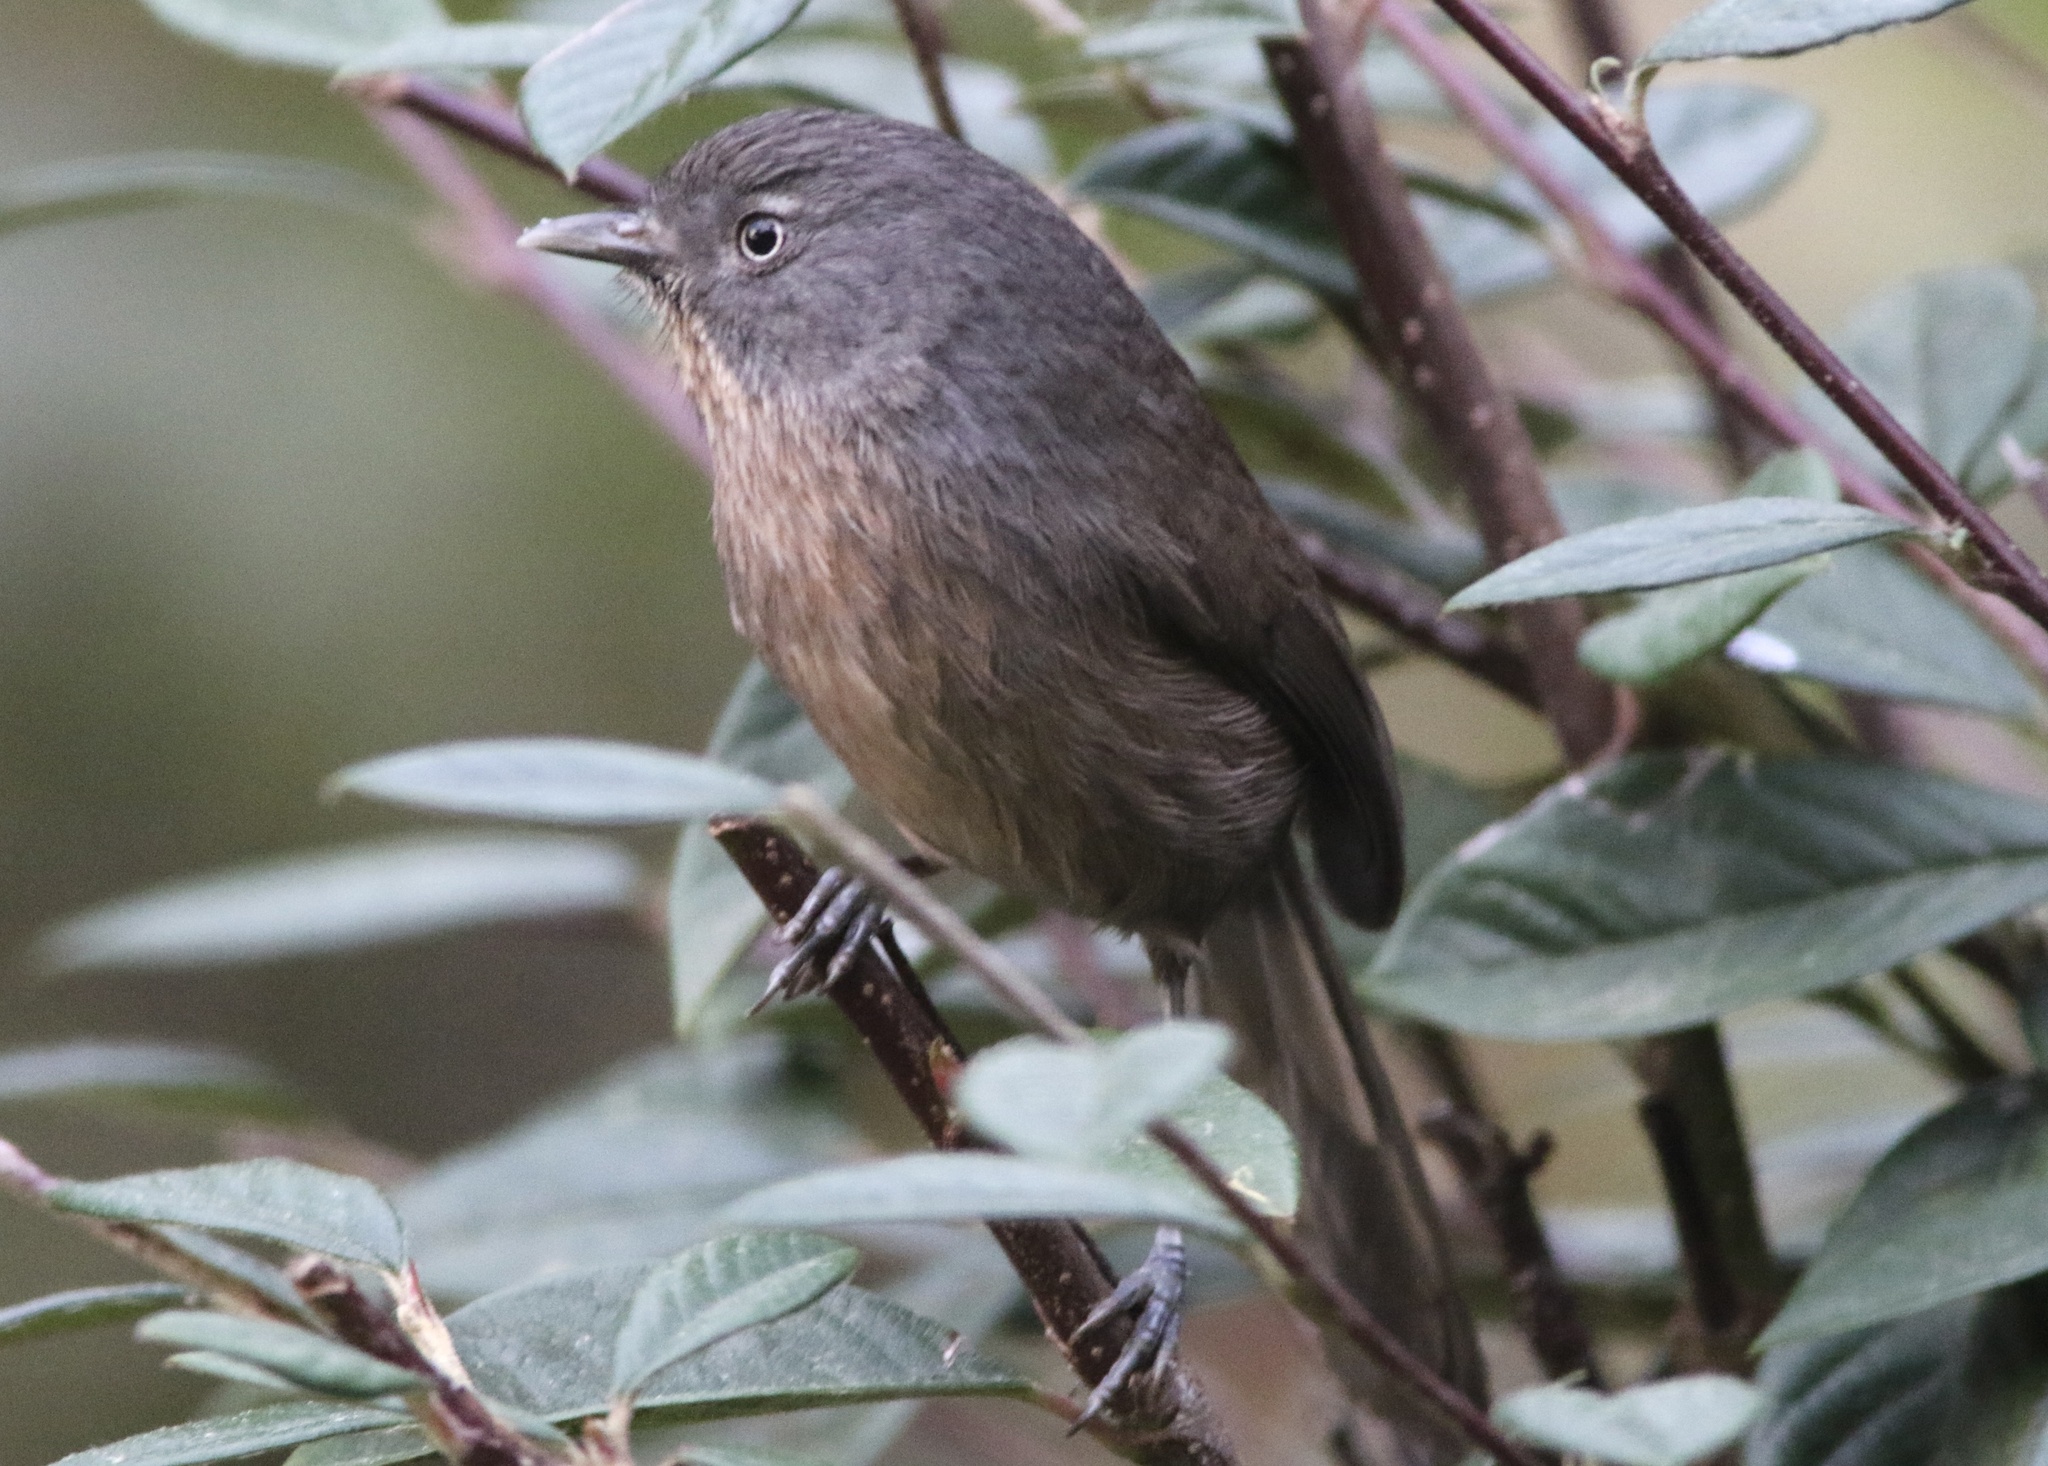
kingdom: Animalia
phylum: Chordata
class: Aves
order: Passeriformes
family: Sylviidae
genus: Chamaea
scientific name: Chamaea fasciata
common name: Wrentit
